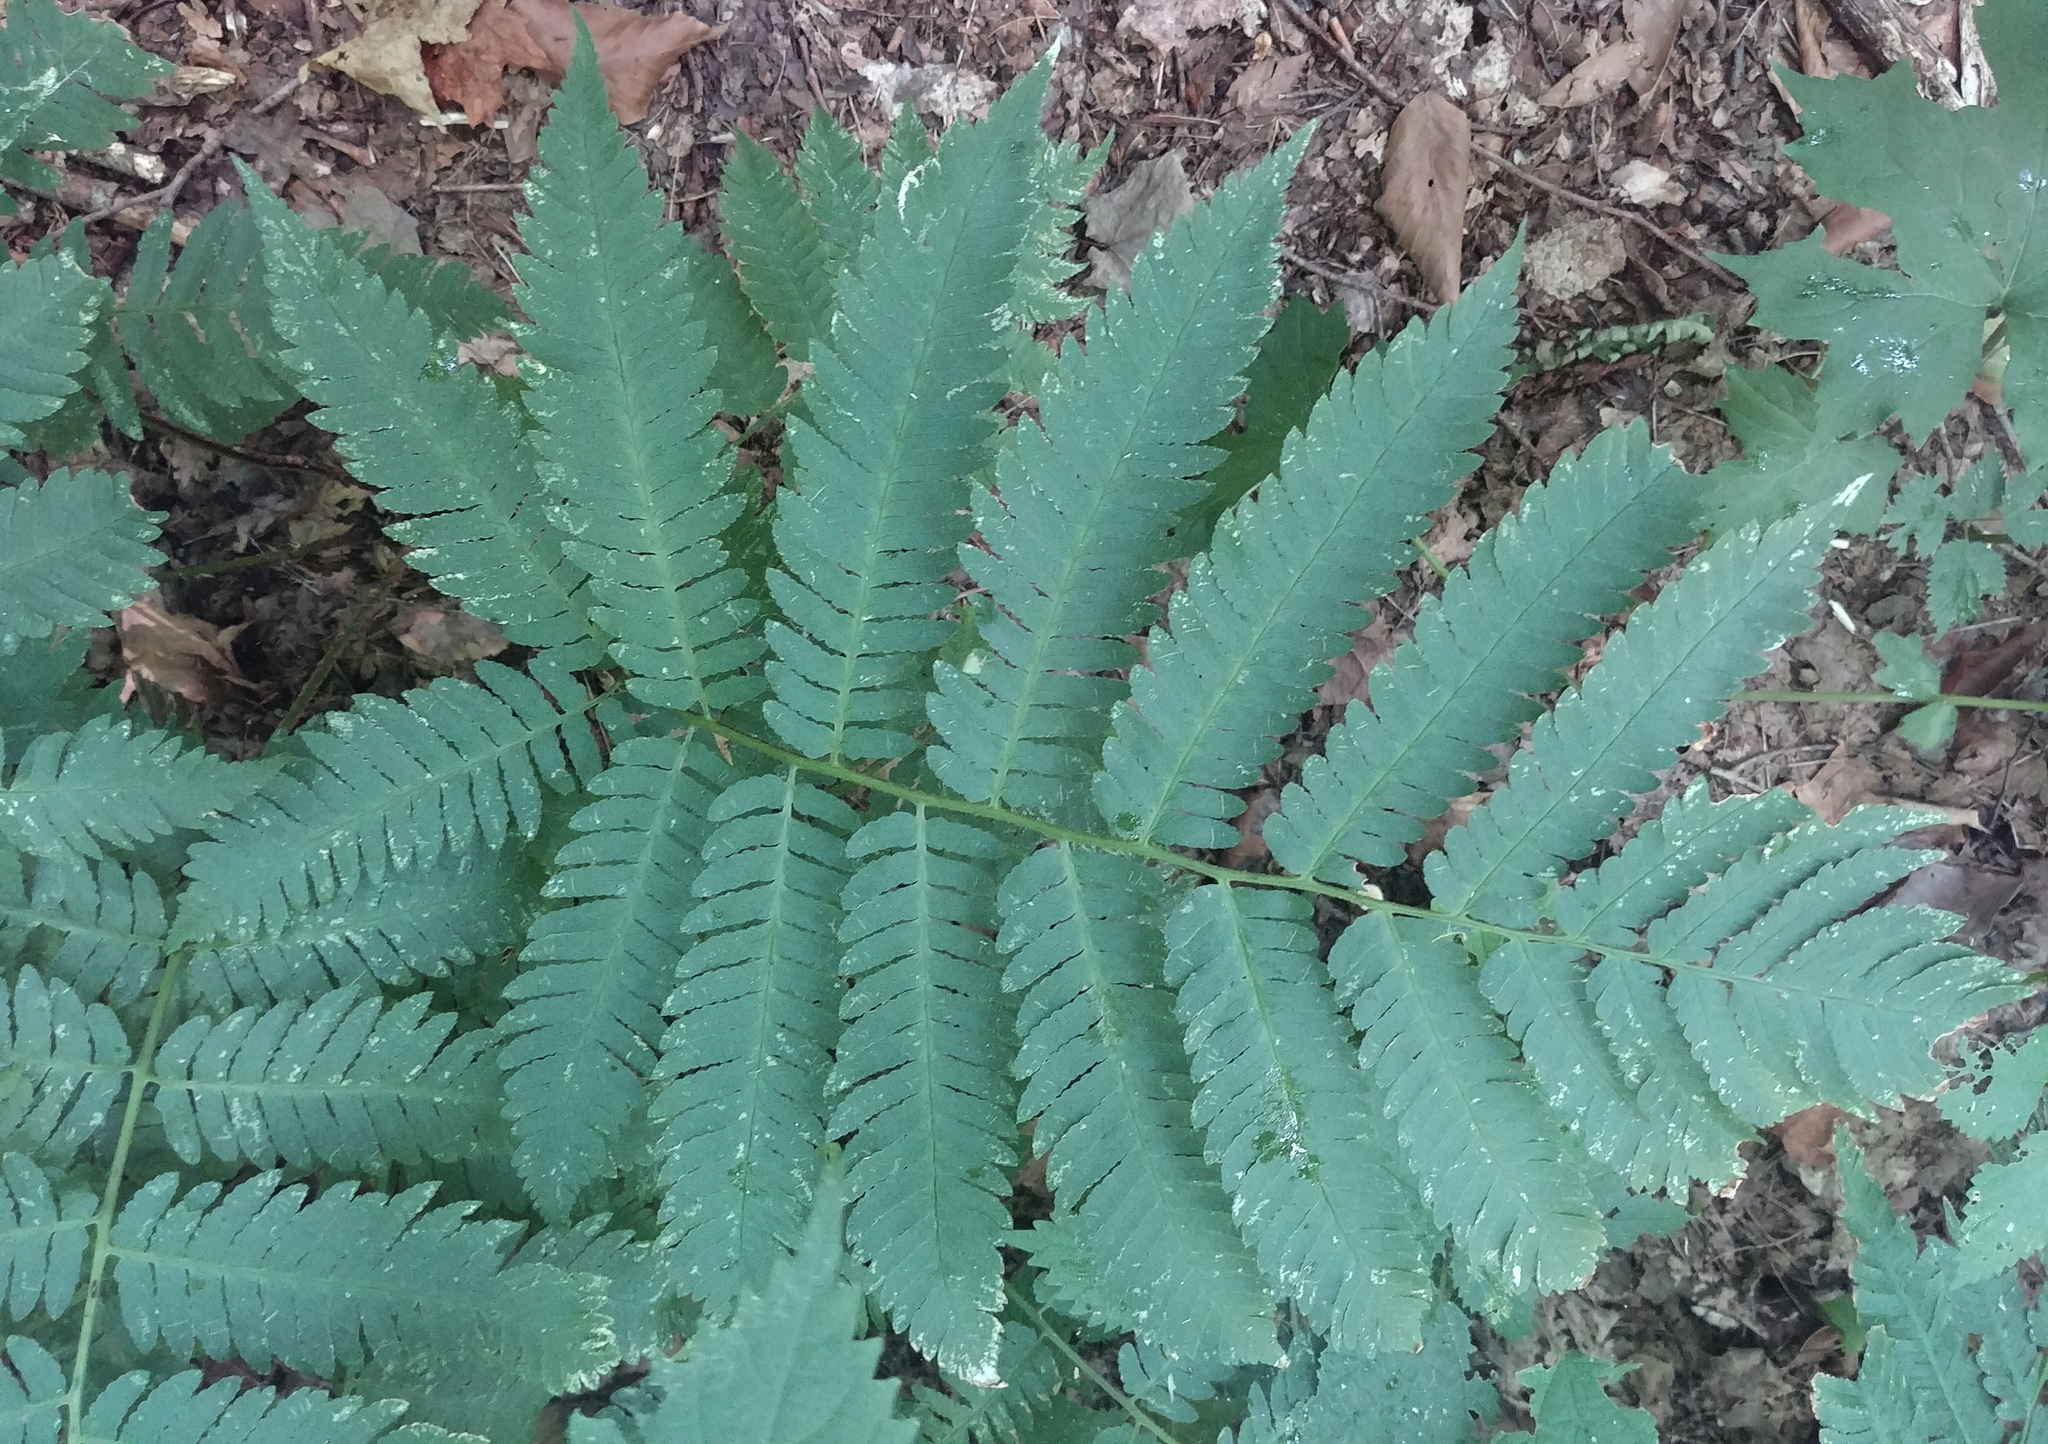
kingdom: Plantae
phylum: Tracheophyta
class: Polypodiopsida
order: Polypodiales
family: Dryopteridaceae
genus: Dryopteris
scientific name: Dryopteris goldieana
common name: Goldie's fern
